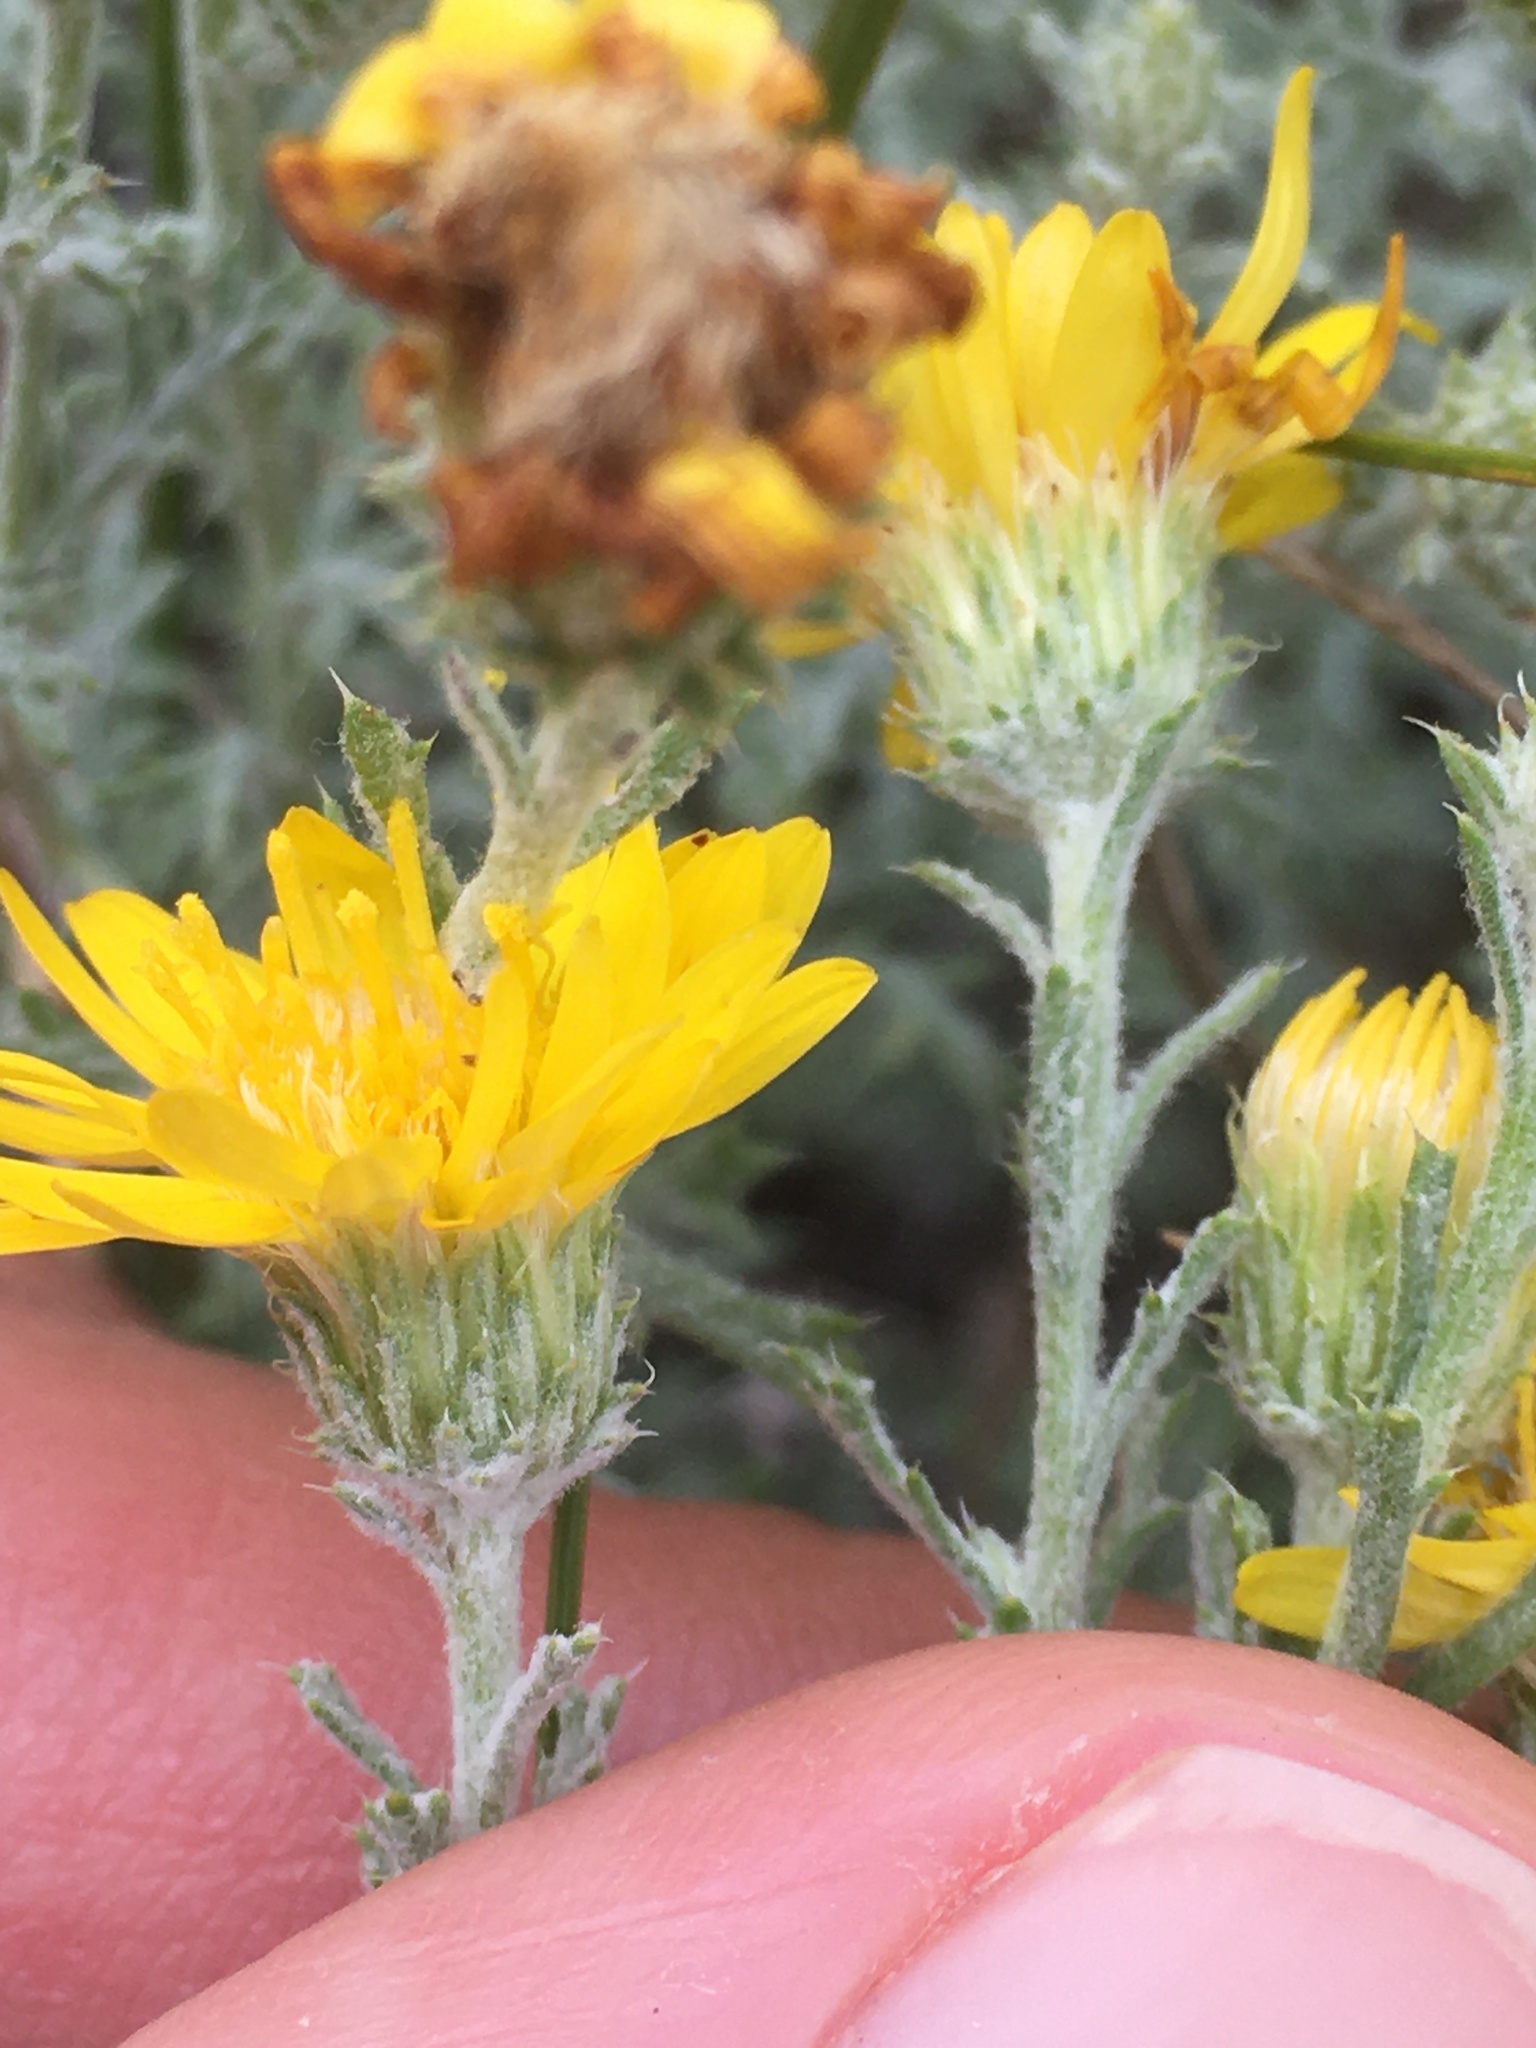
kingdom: Plantae
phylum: Tracheophyta
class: Magnoliopsida
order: Asterales
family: Asteraceae
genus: Xanthisma
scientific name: Xanthisma spinulosum
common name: Spiny goldenweed
